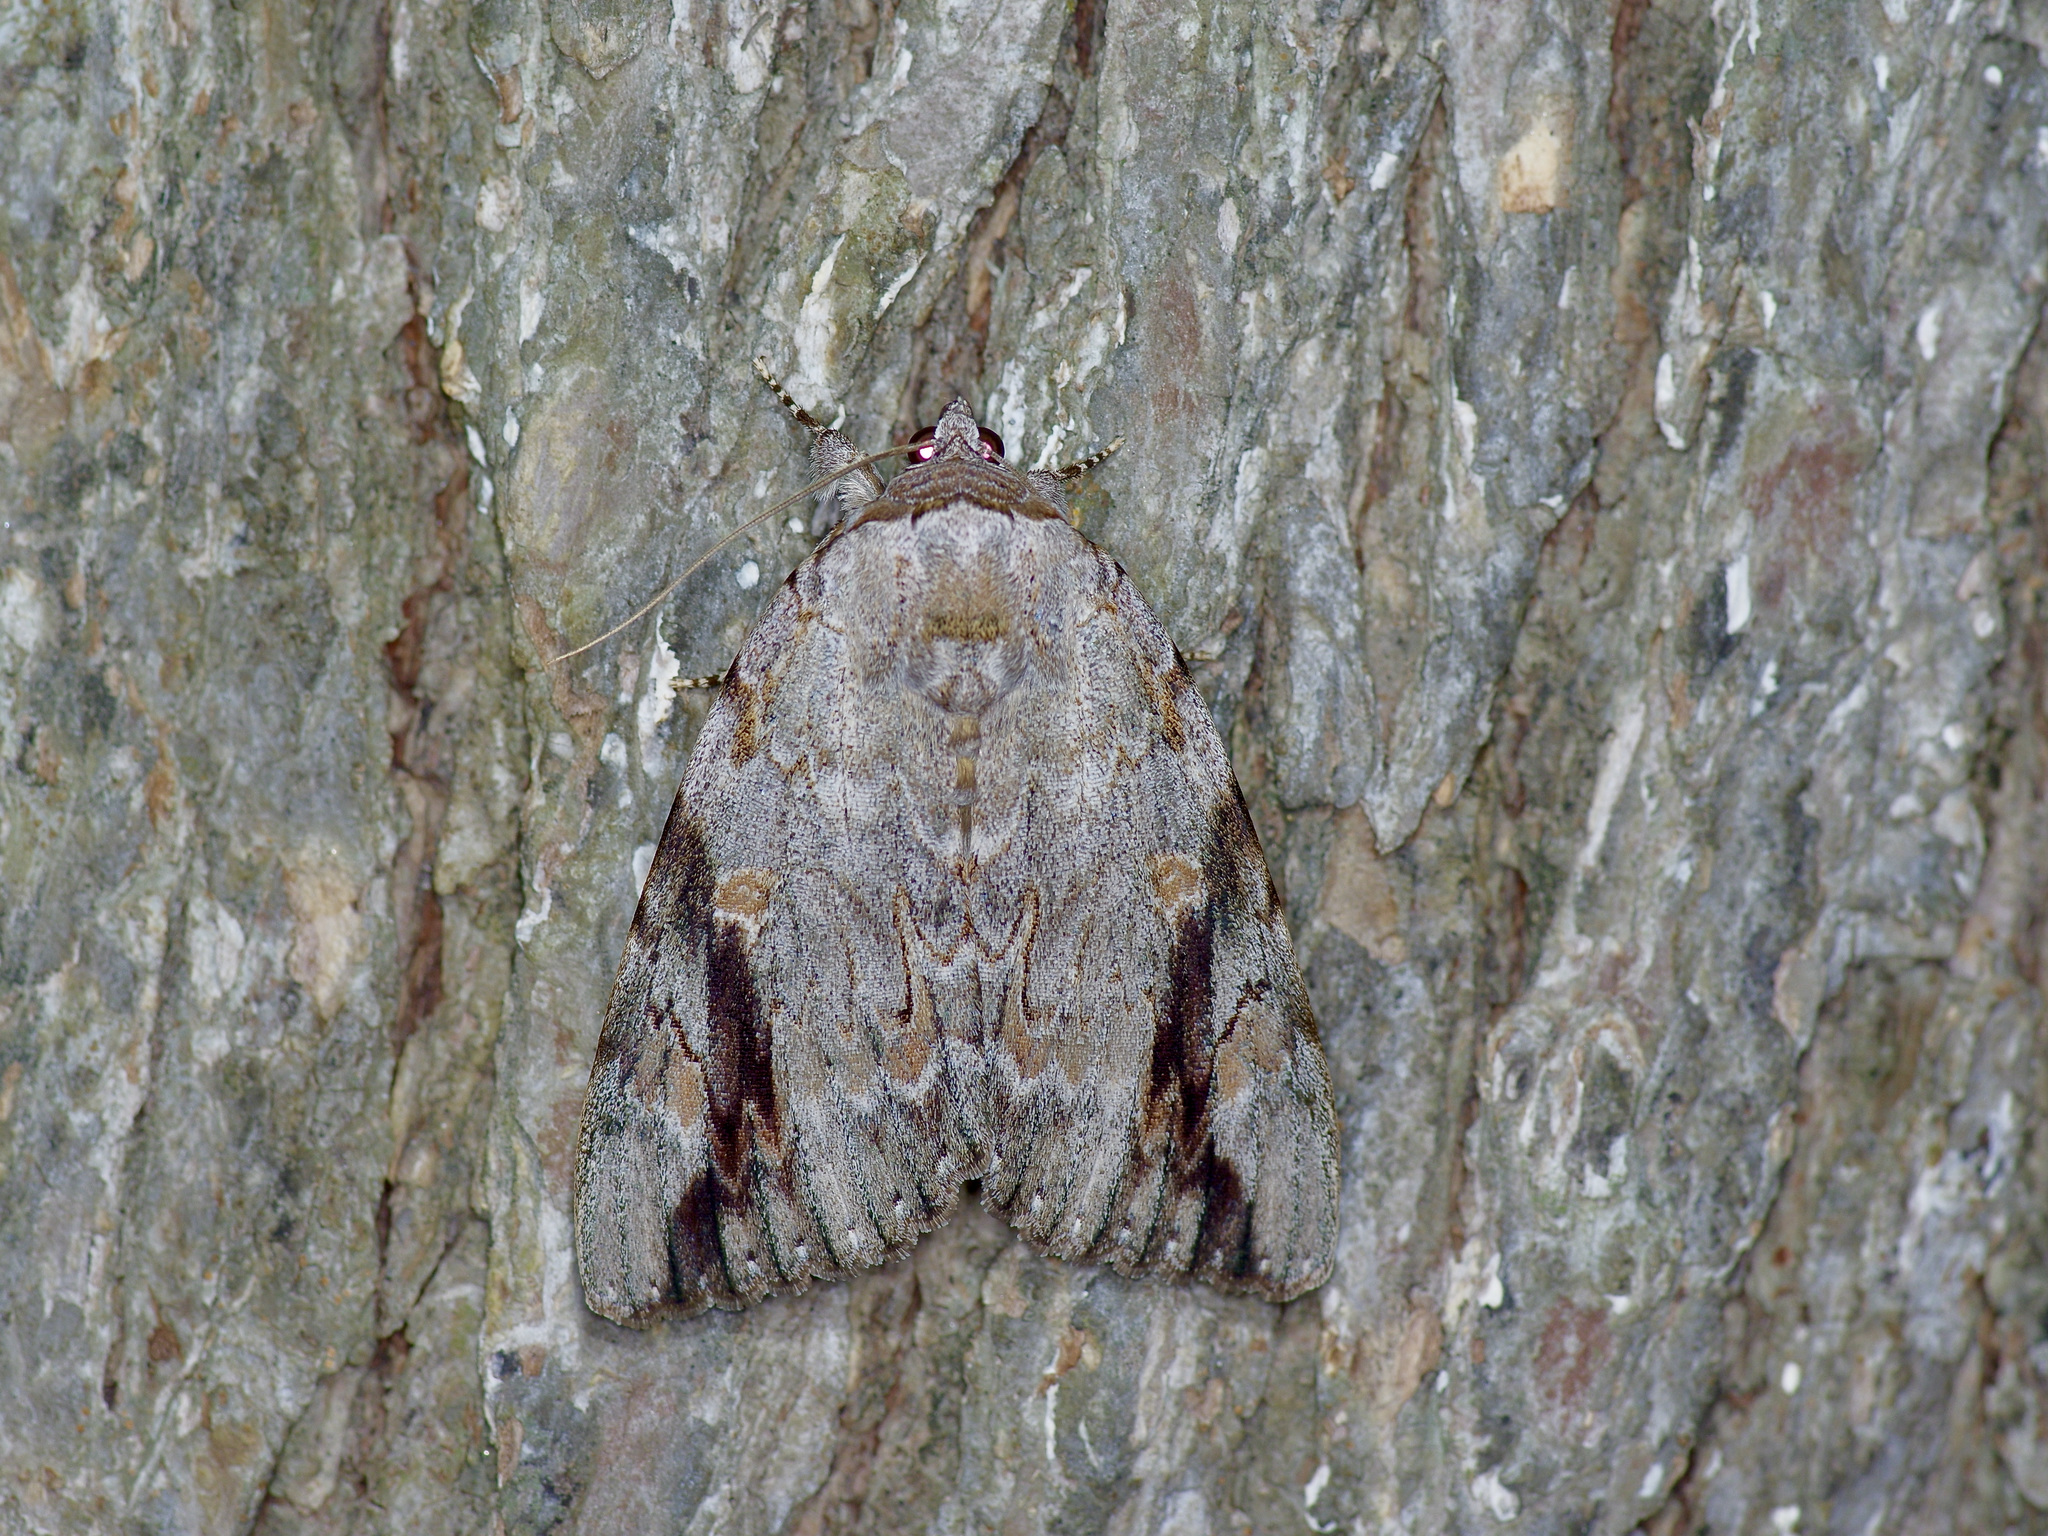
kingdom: Animalia
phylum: Arthropoda
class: Insecta
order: Lepidoptera
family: Erebidae
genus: Catocala
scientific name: Catocala maestosa
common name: Sad underwing
